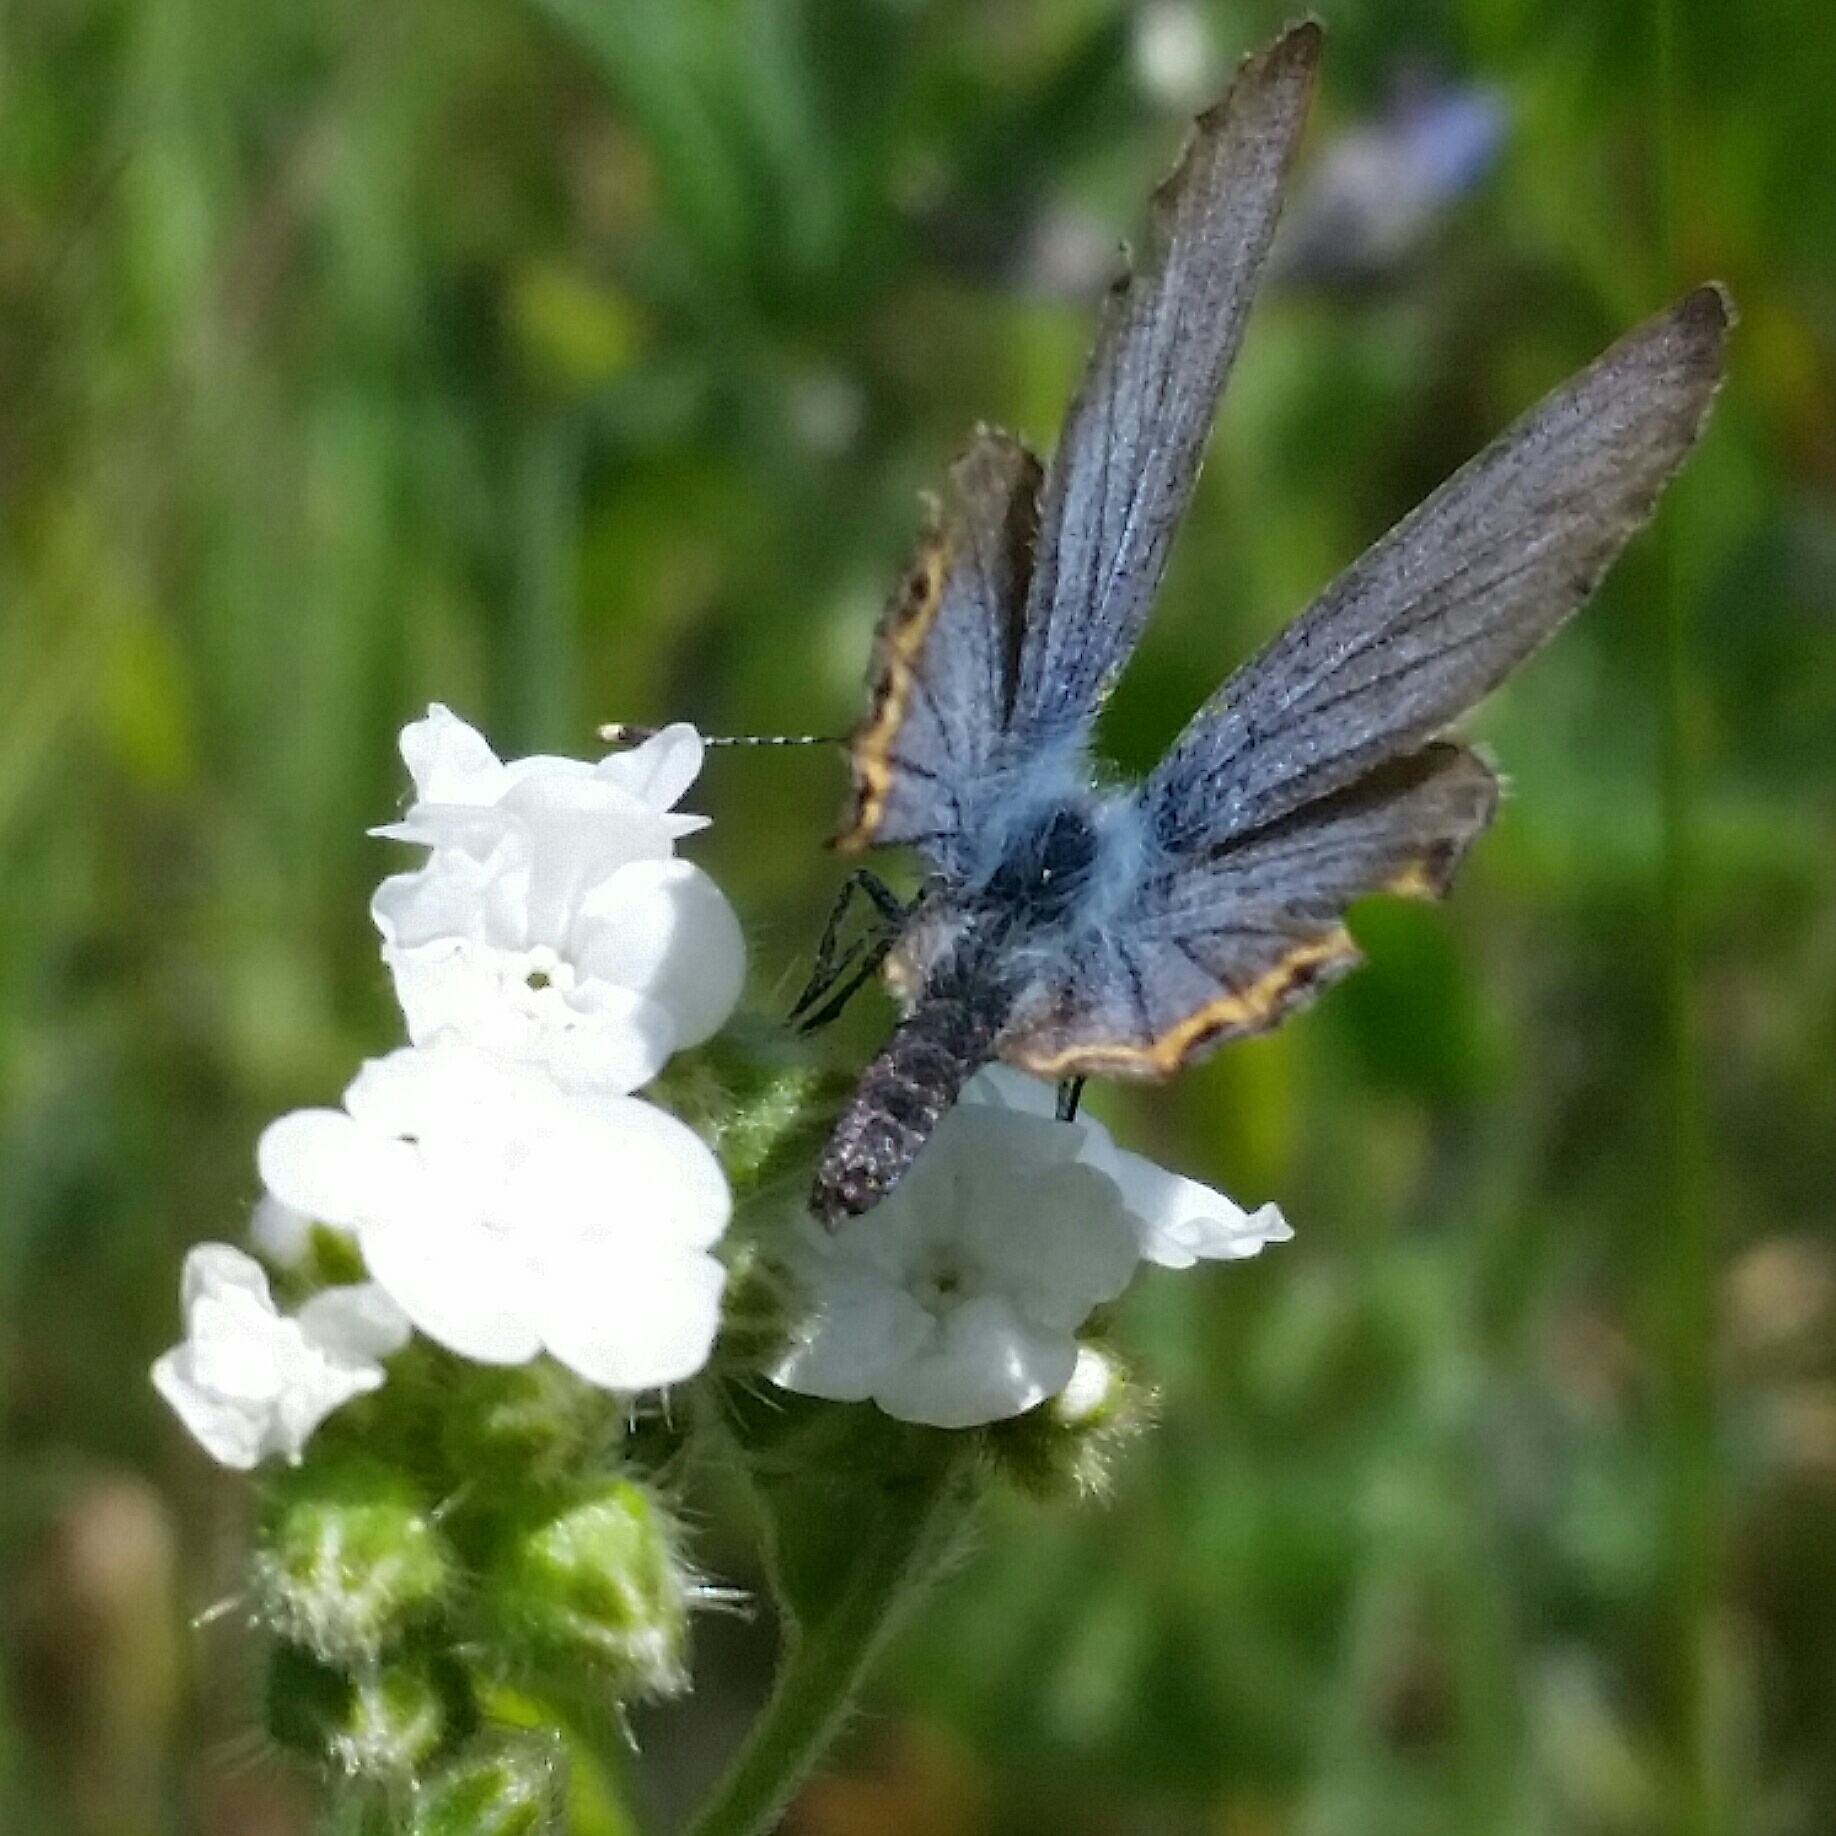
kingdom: Animalia
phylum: Arthropoda
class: Insecta
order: Lepidoptera
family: Lycaenidae
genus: Icaricia
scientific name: Icaricia acmon
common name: Acmon blue
